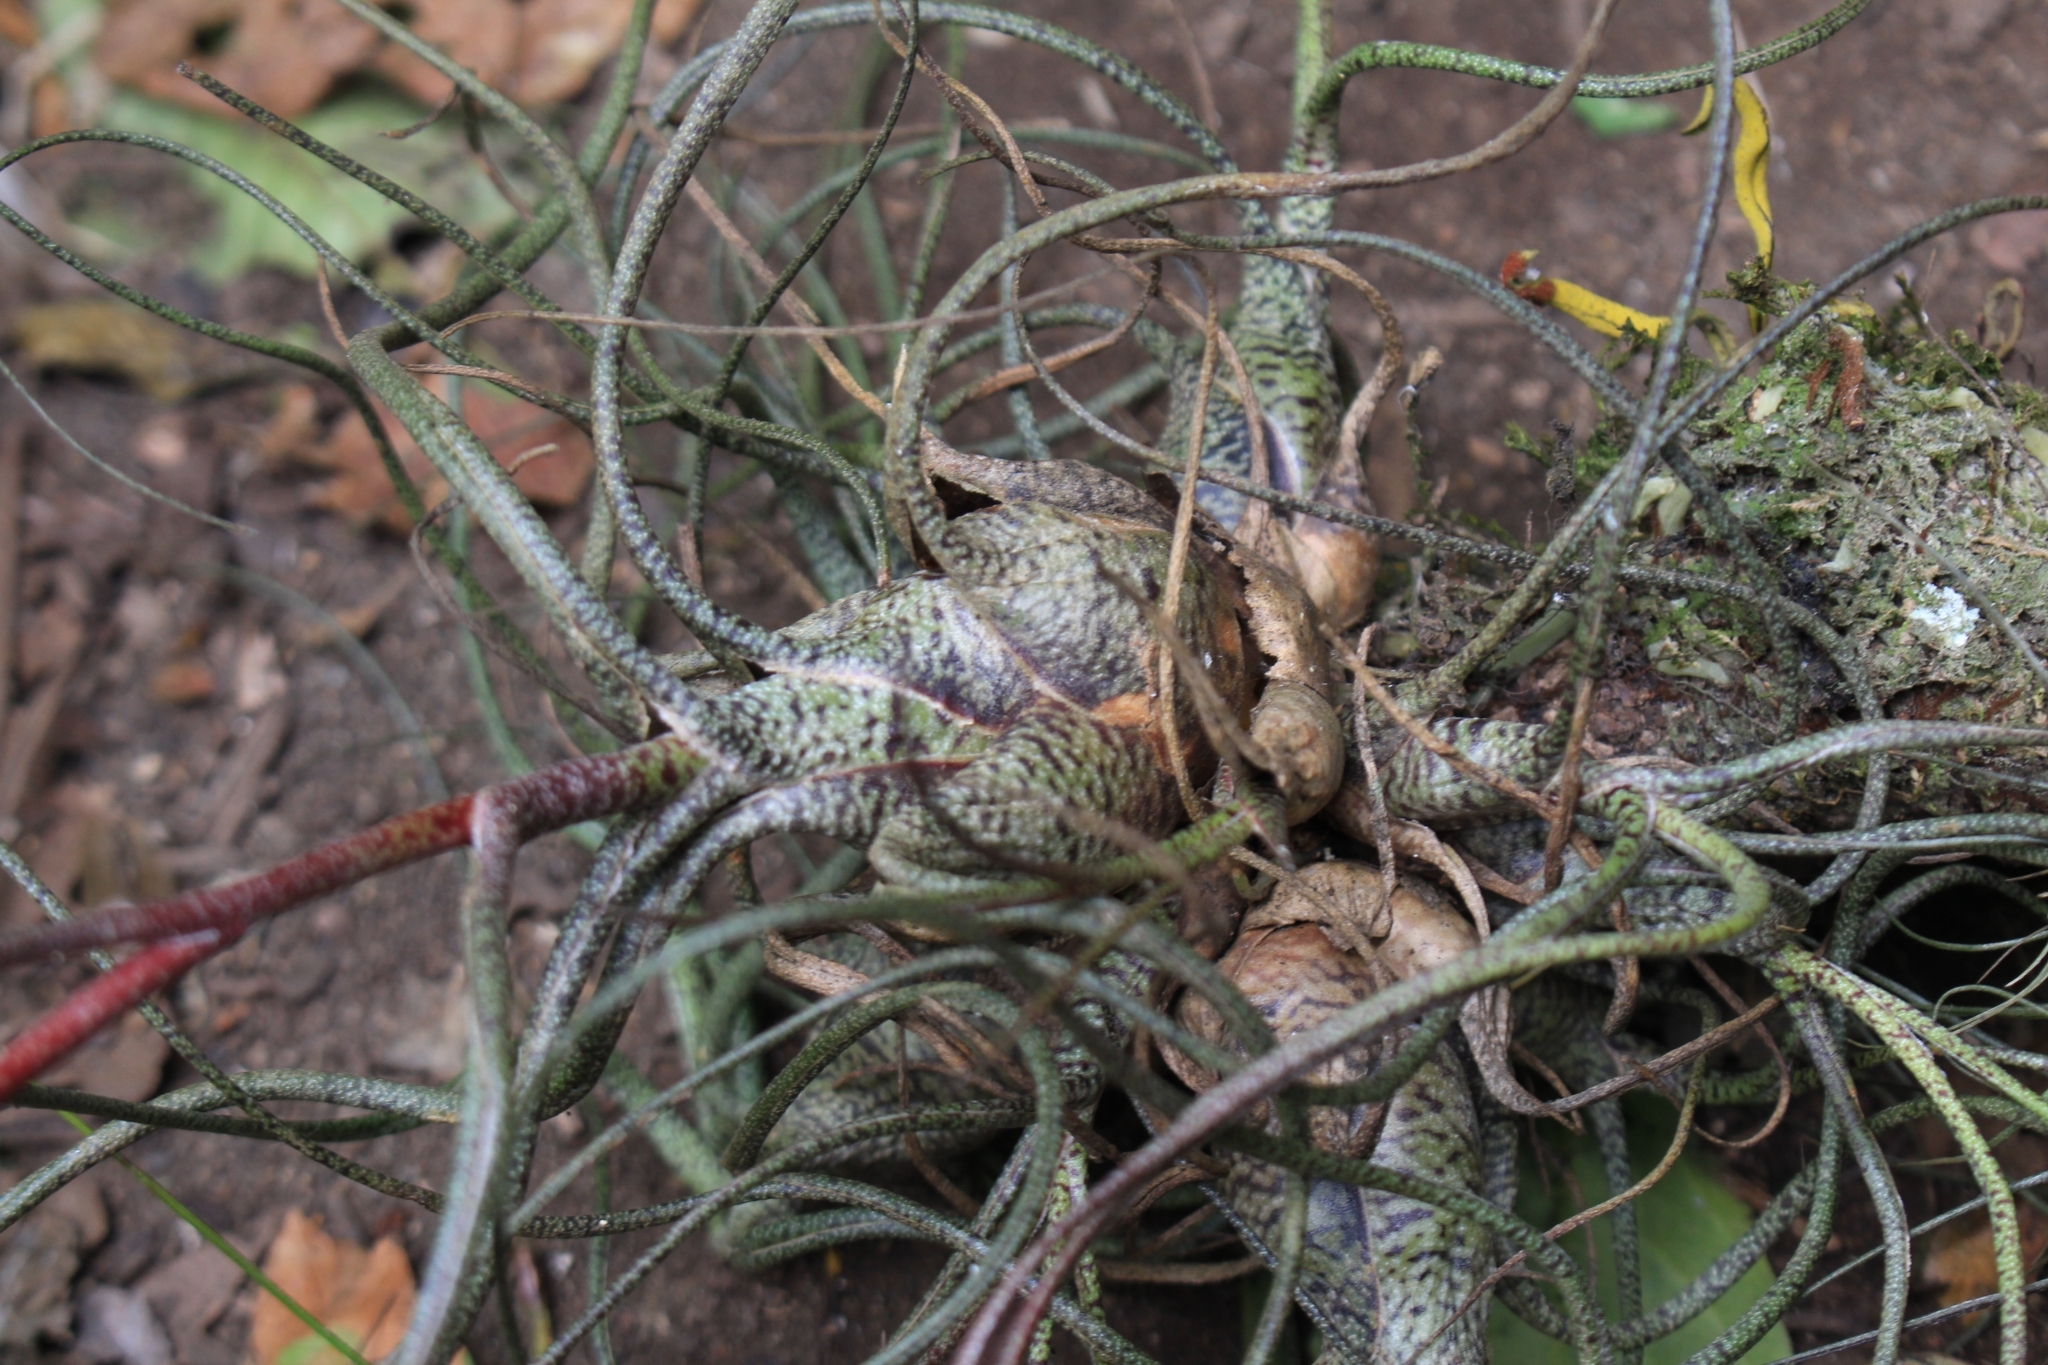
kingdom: Plantae
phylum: Tracheophyta
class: Liliopsida
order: Poales
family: Bromeliaceae
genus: Tillandsia
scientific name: Tillandsia butzii
